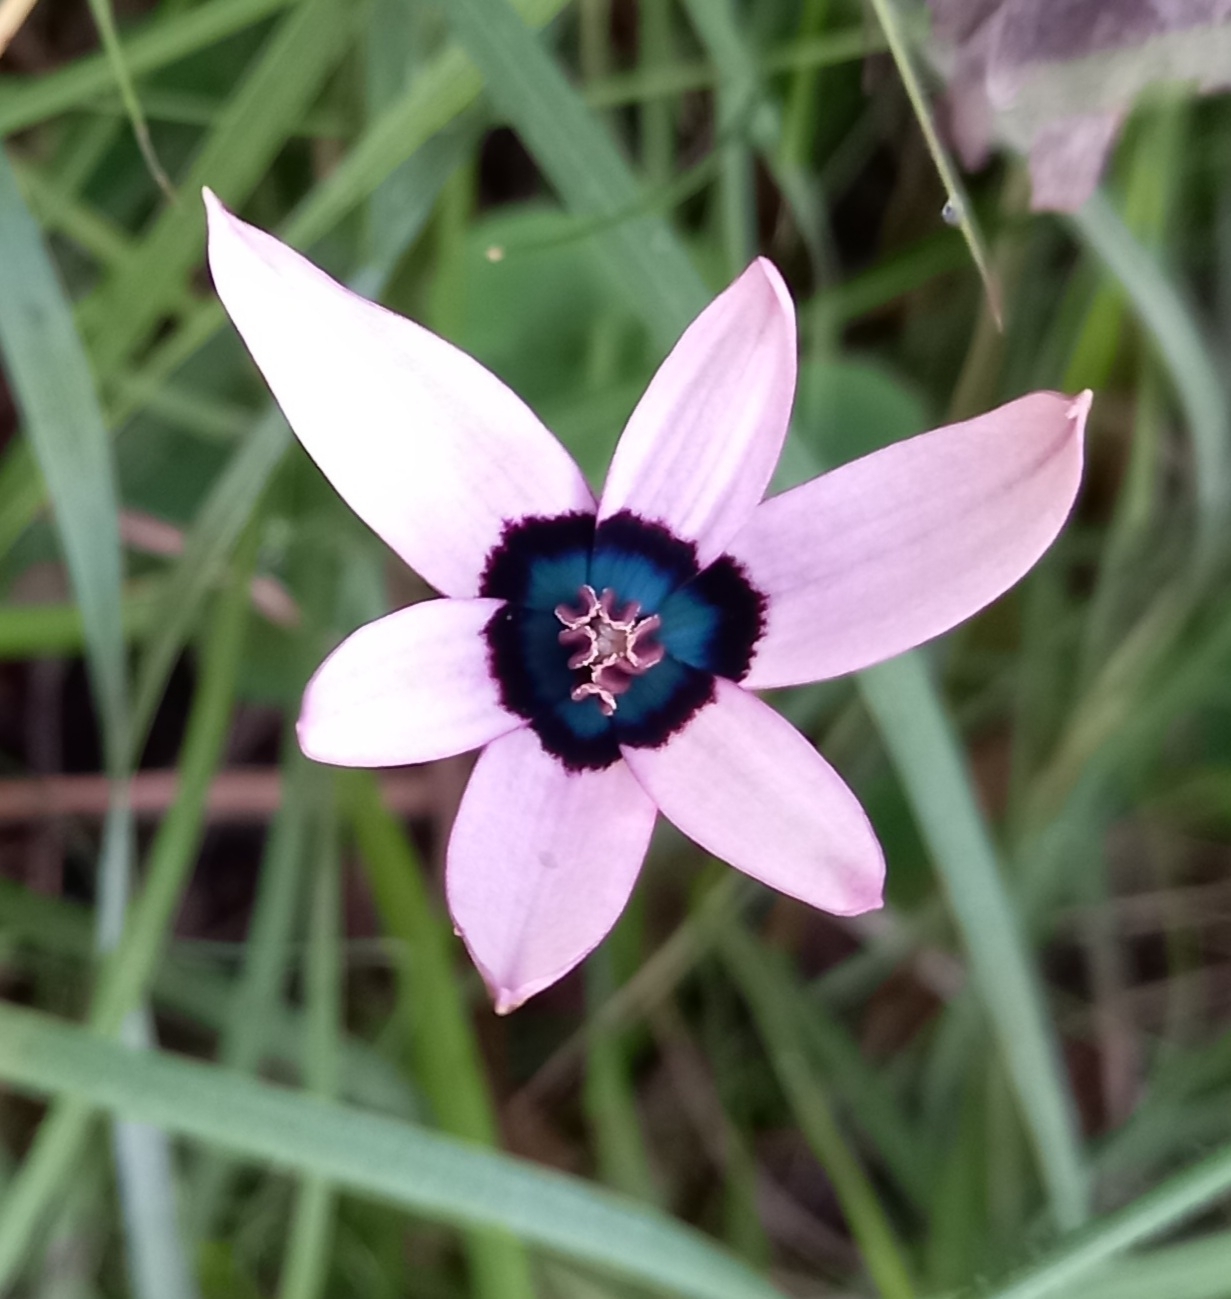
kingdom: Plantae
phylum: Tracheophyta
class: Liliopsida
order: Asparagales
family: Hypoxidaceae
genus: Pauridia
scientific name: Pauridia capensis
